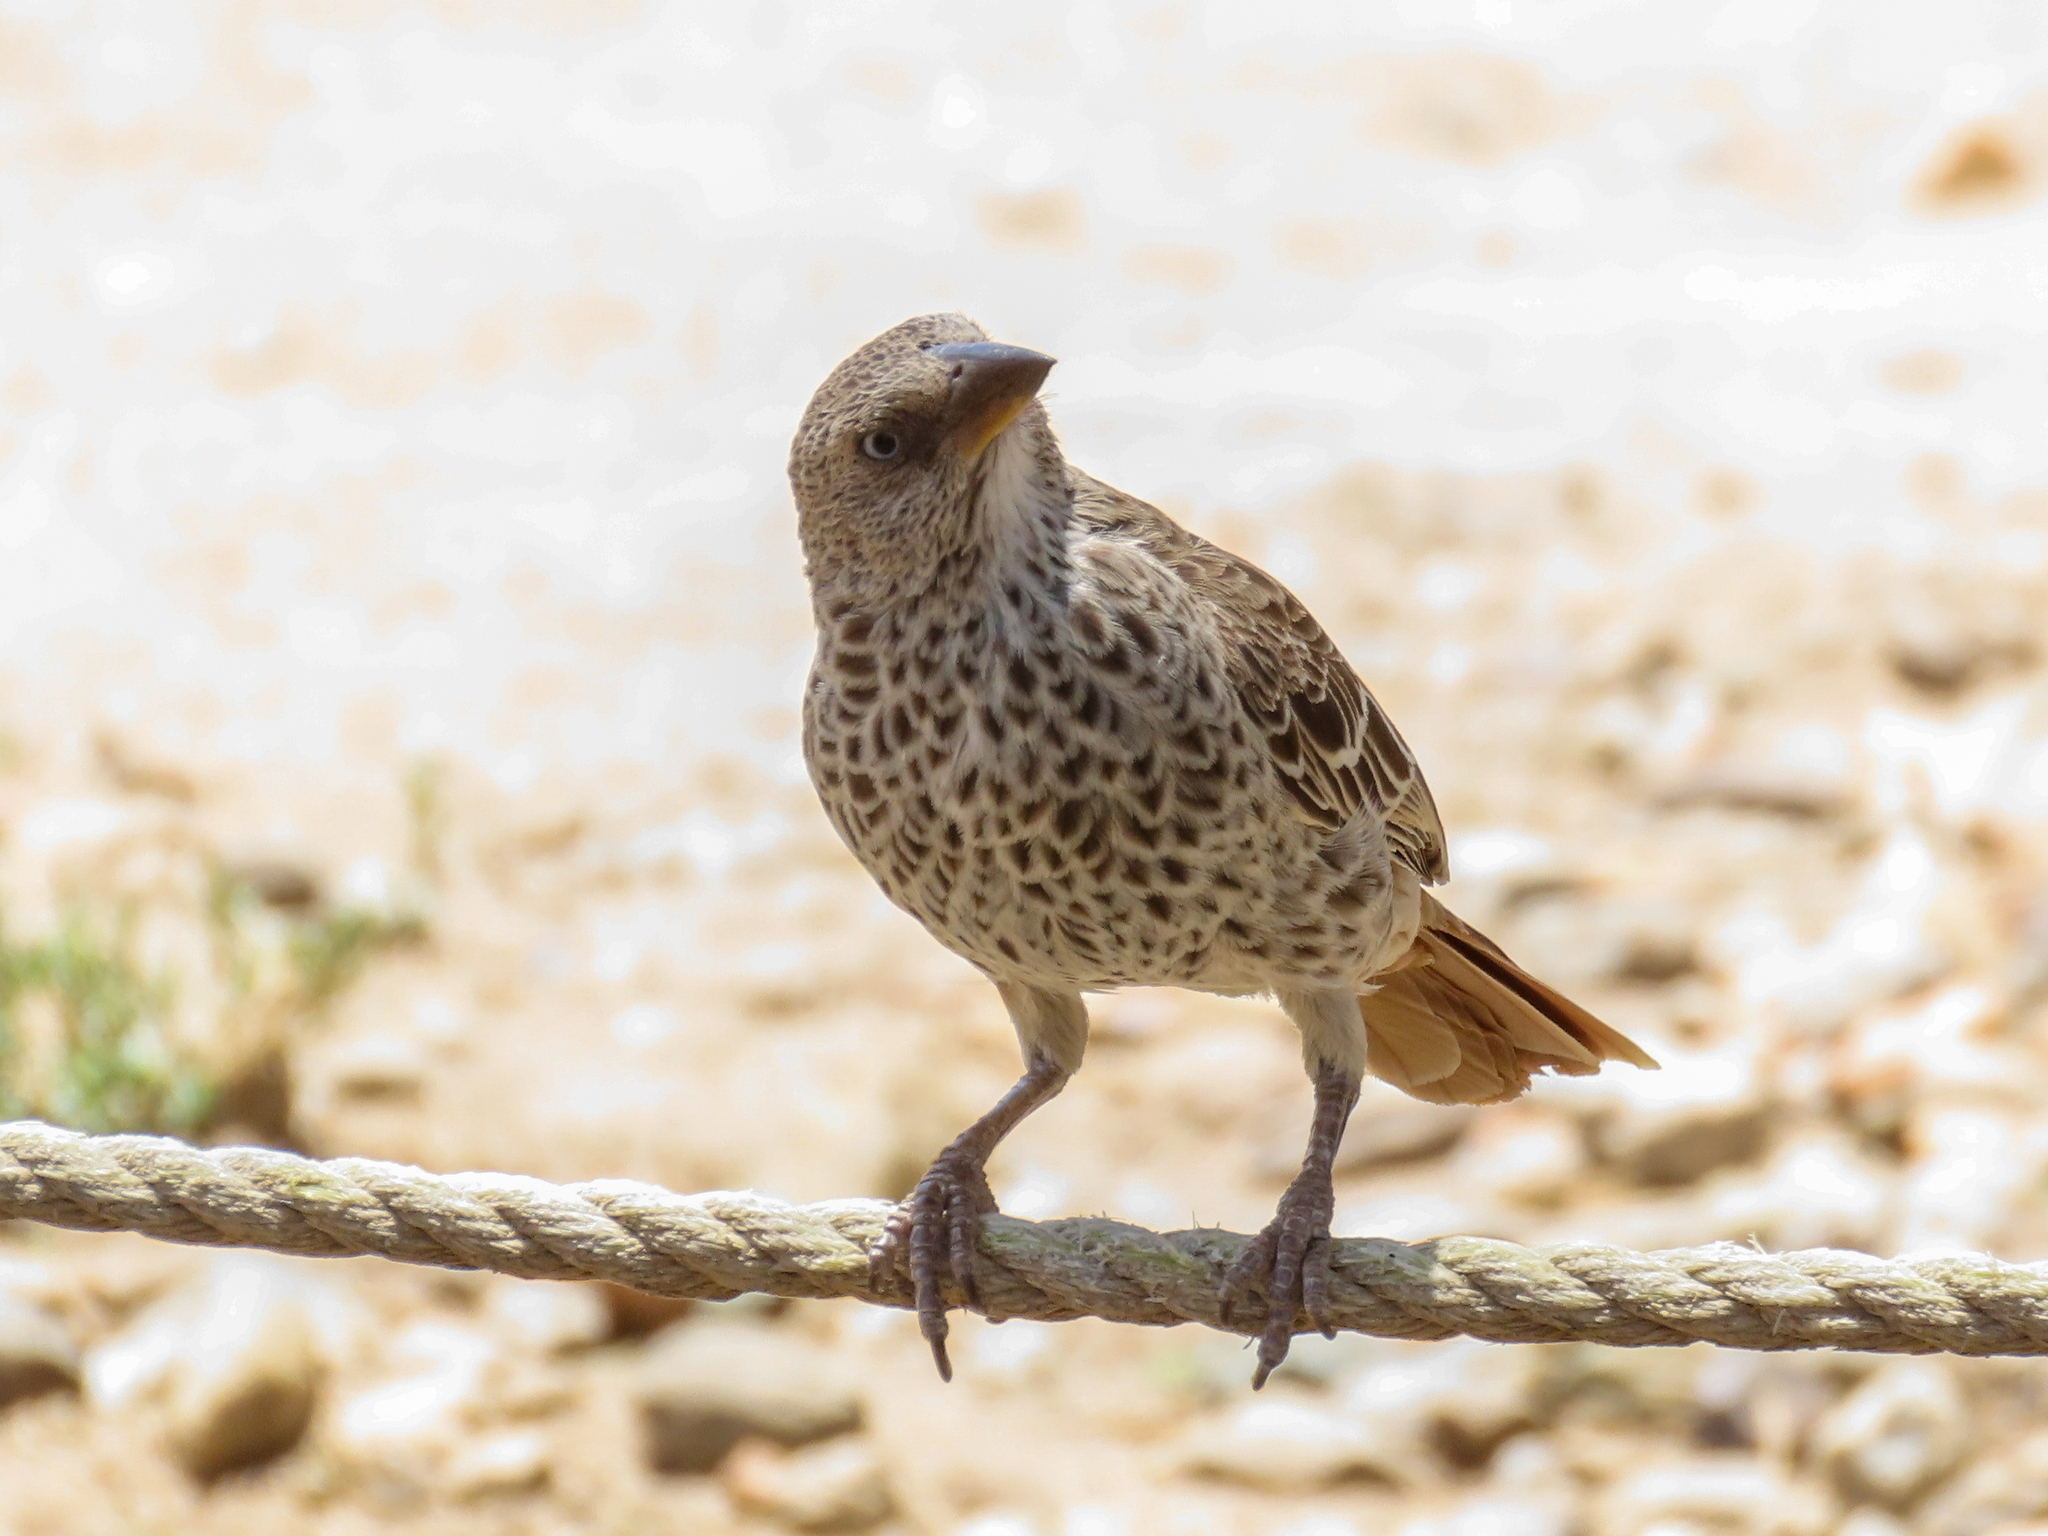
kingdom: Animalia
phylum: Chordata
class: Aves
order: Passeriformes
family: Passeridae
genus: Histurgops
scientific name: Histurgops ruficauda
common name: Rufous-tailed weaver
